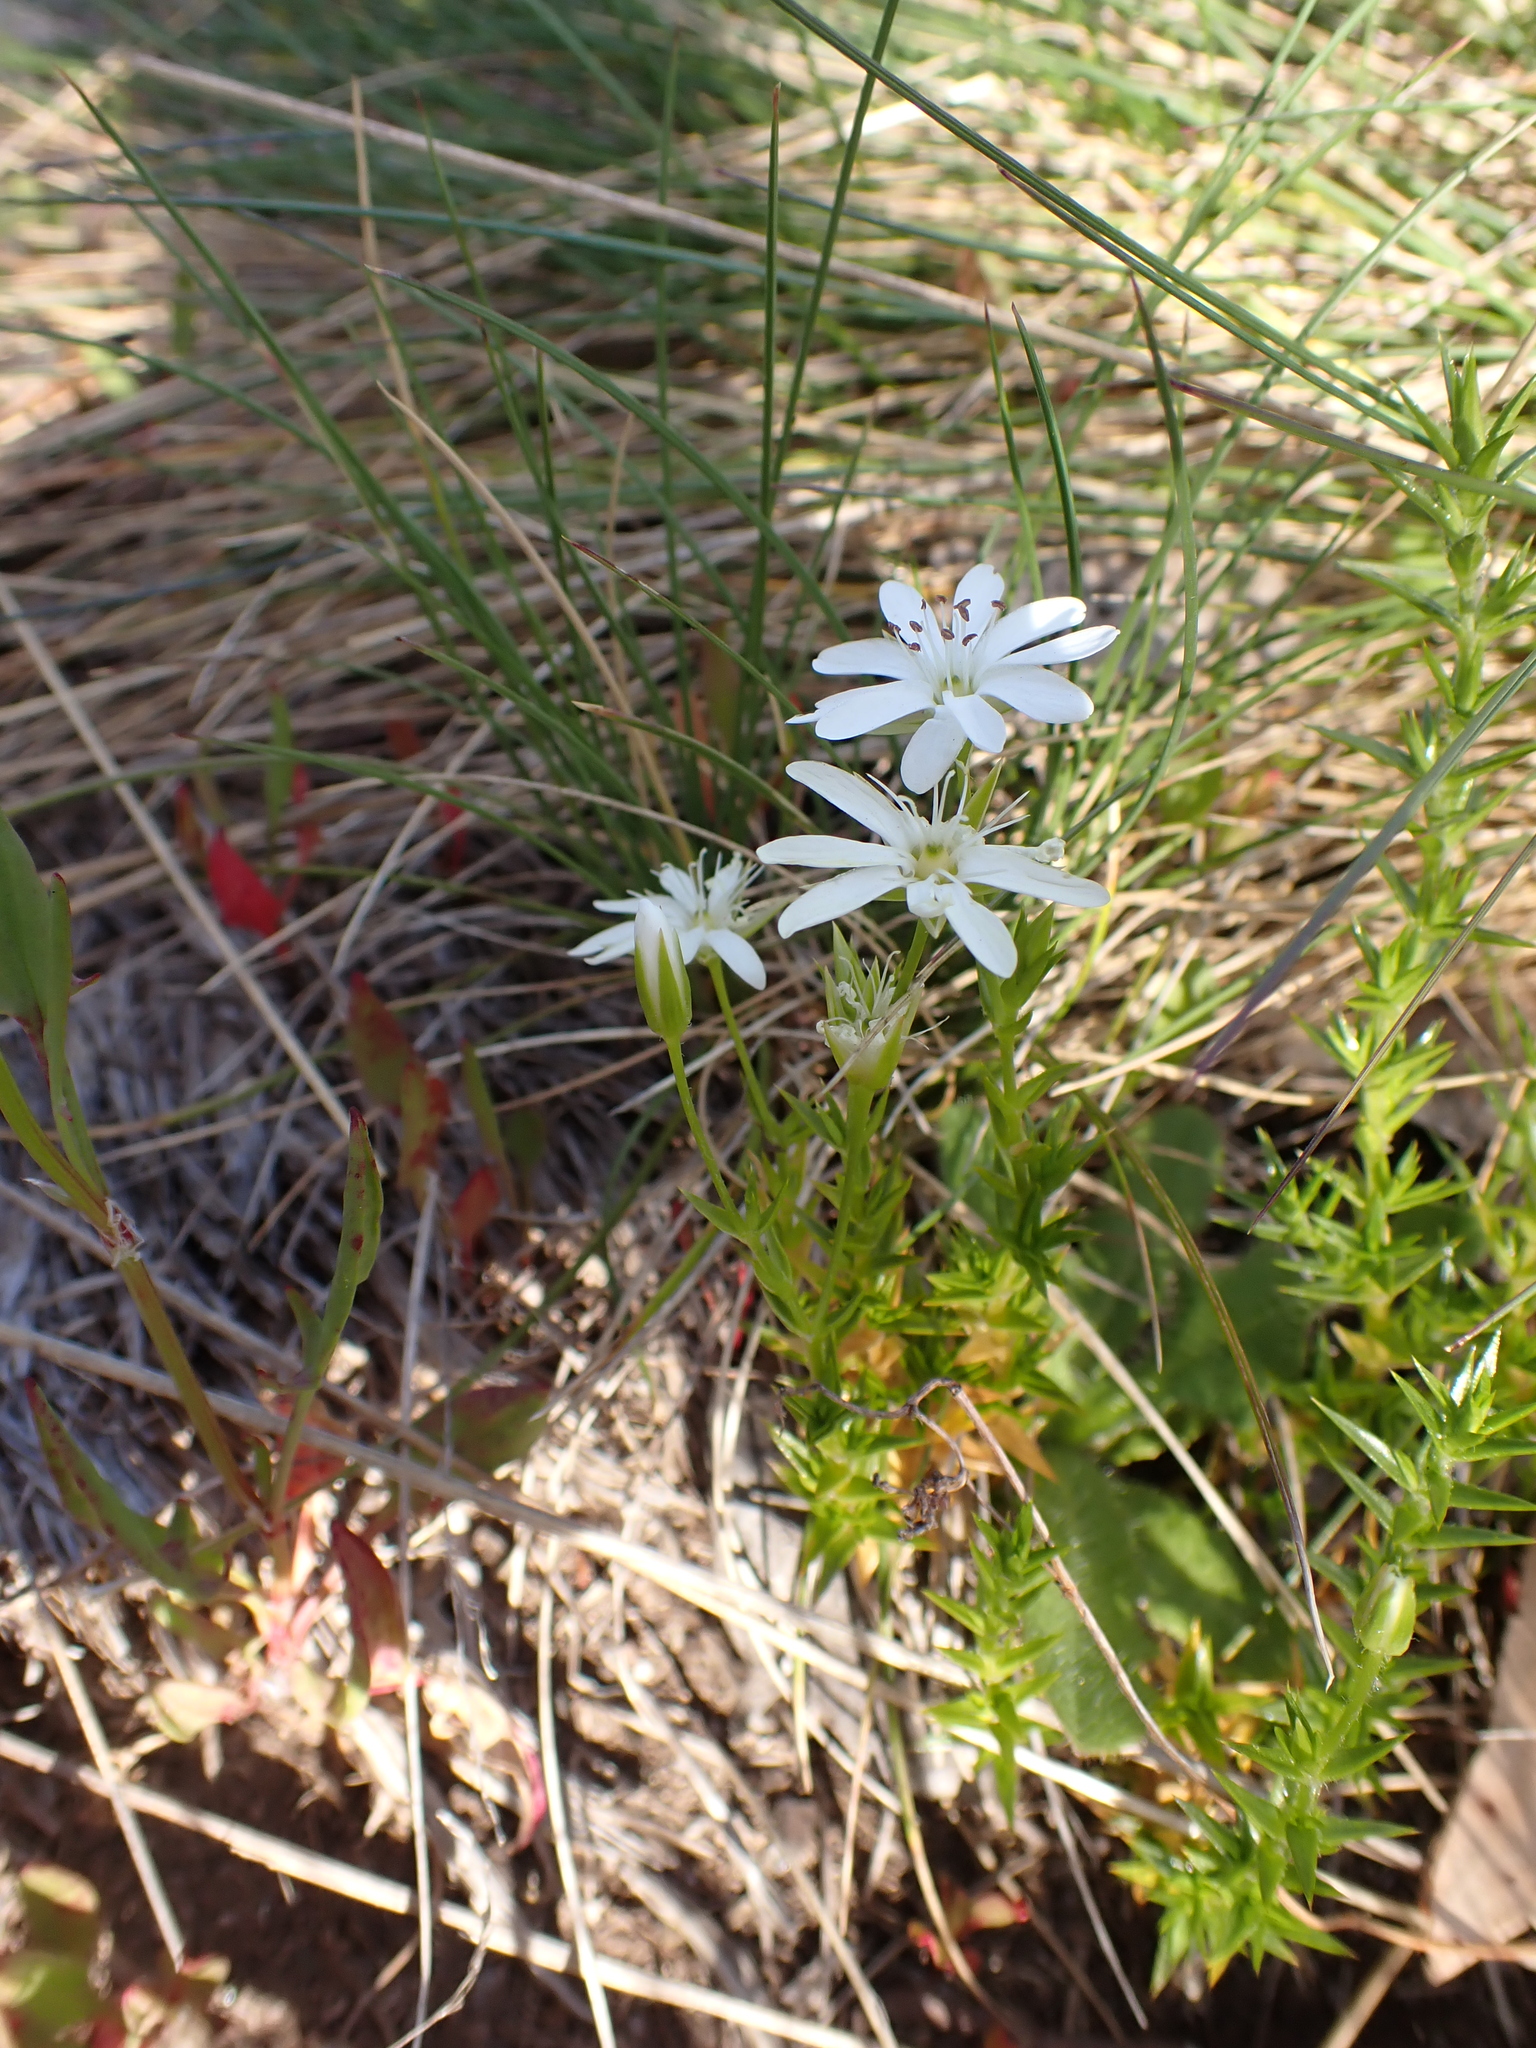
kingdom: Plantae
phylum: Tracheophyta
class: Magnoliopsida
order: Caryophyllales
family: Caryophyllaceae
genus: Stellaria
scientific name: Stellaria pungens
